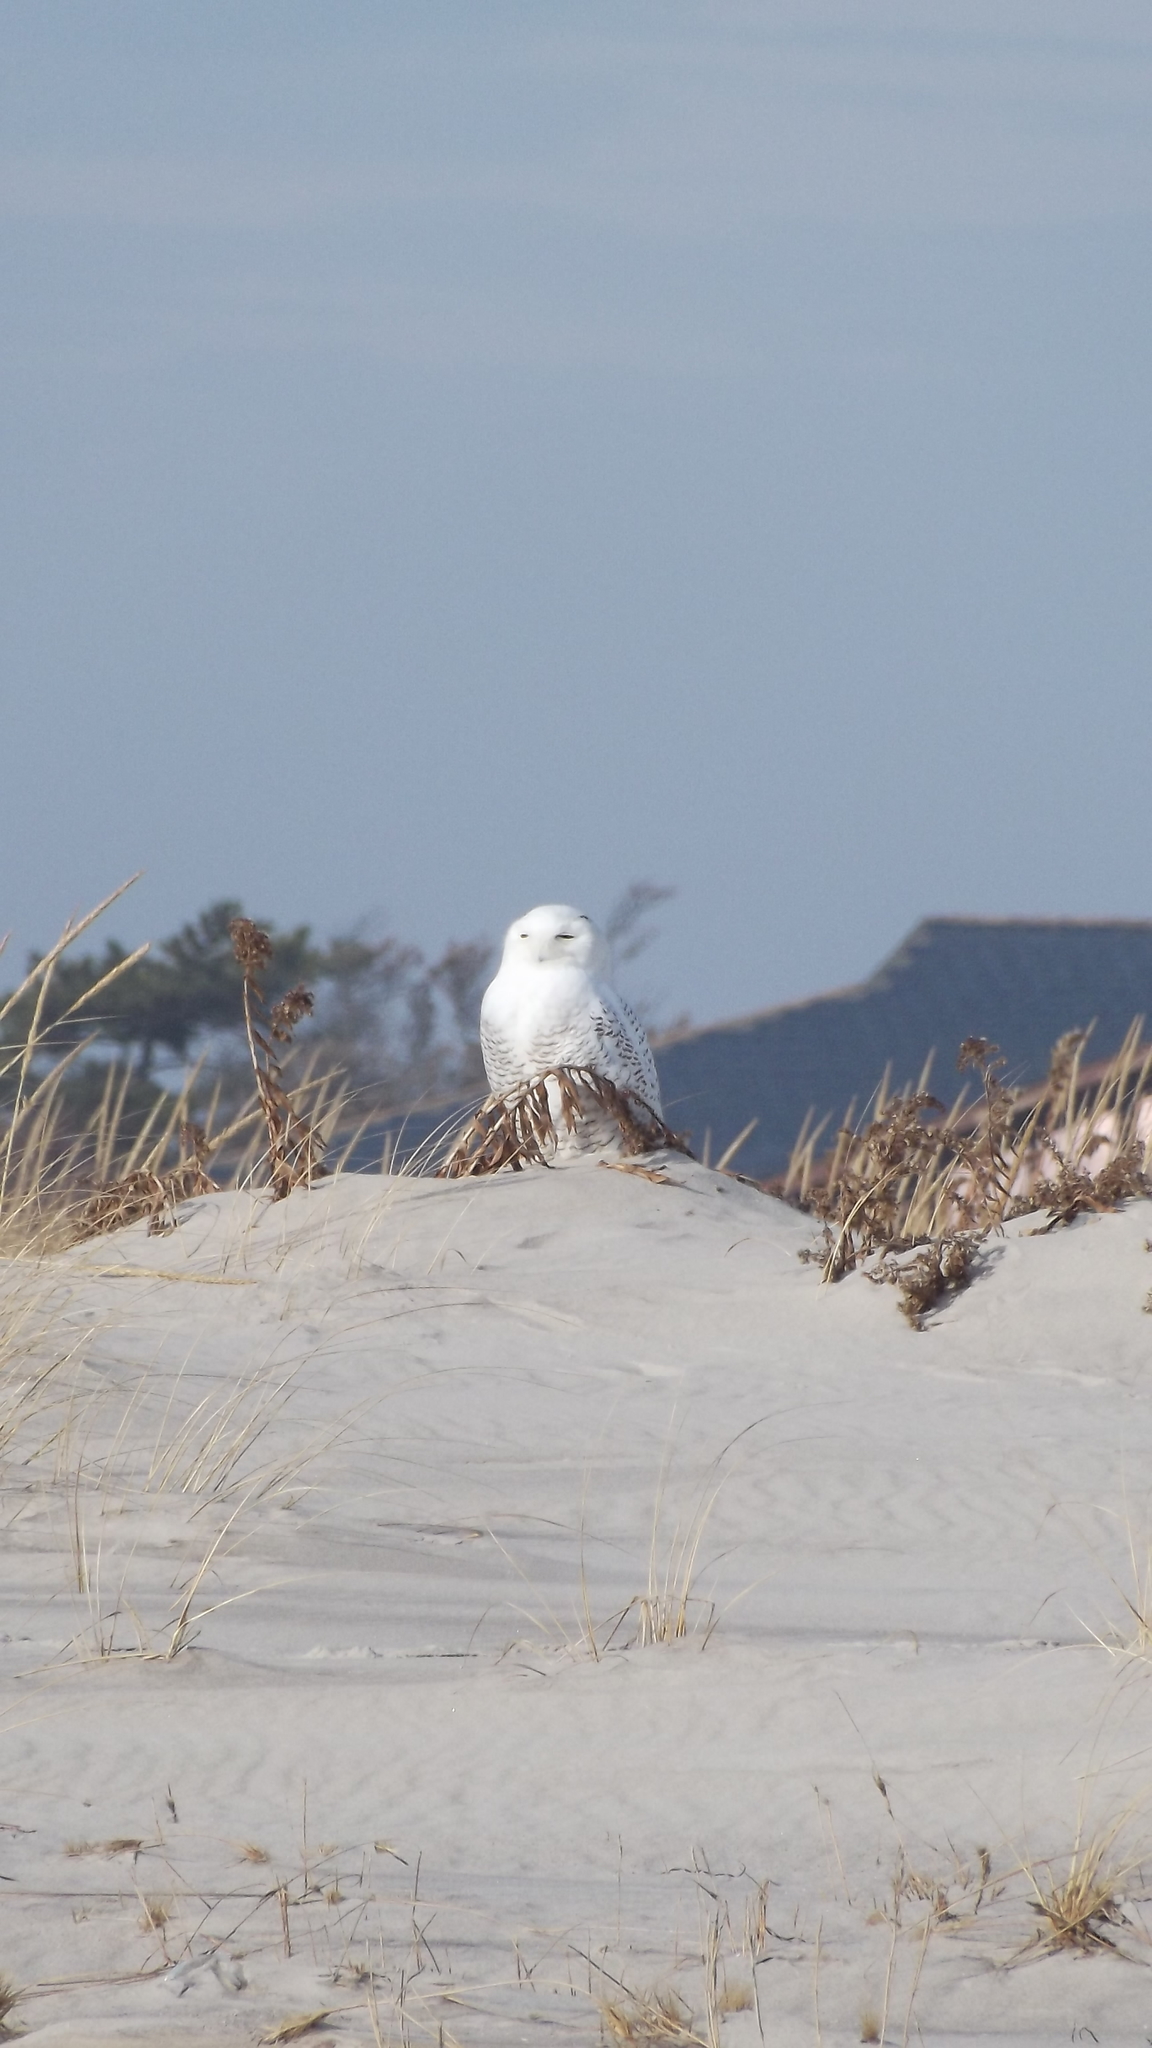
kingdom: Animalia
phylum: Chordata
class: Aves
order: Strigiformes
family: Strigidae
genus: Bubo
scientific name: Bubo scandiacus
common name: Snowy owl
